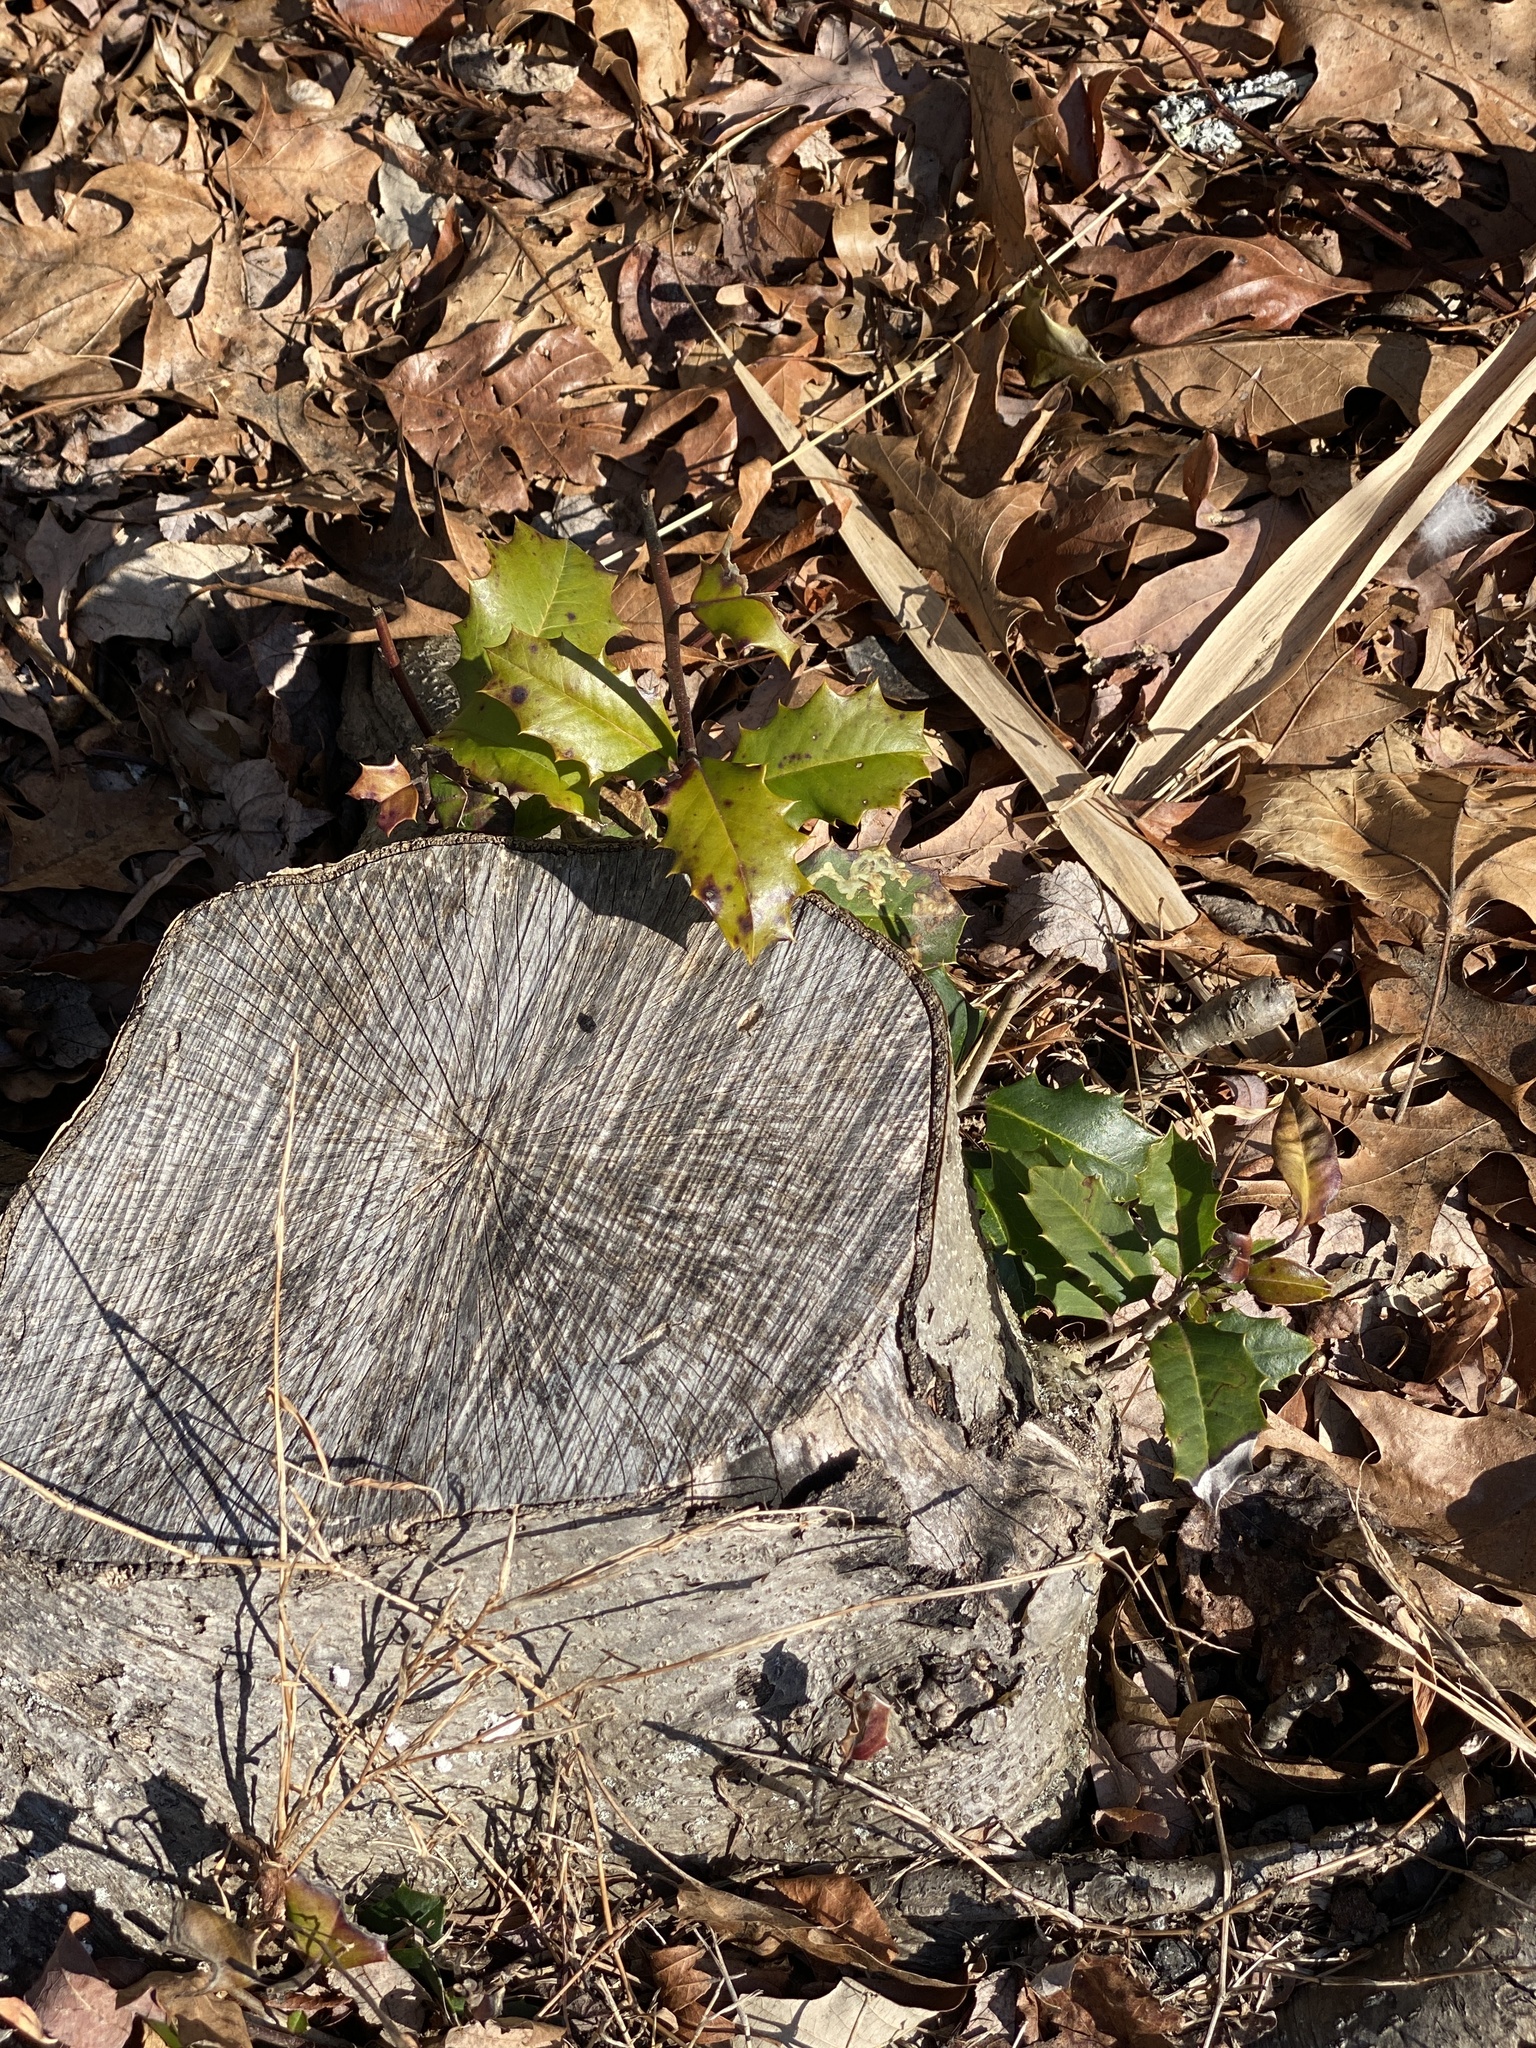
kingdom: Plantae
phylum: Tracheophyta
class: Magnoliopsida
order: Aquifoliales
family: Aquifoliaceae
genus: Ilex
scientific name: Ilex opaca
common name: American holly
